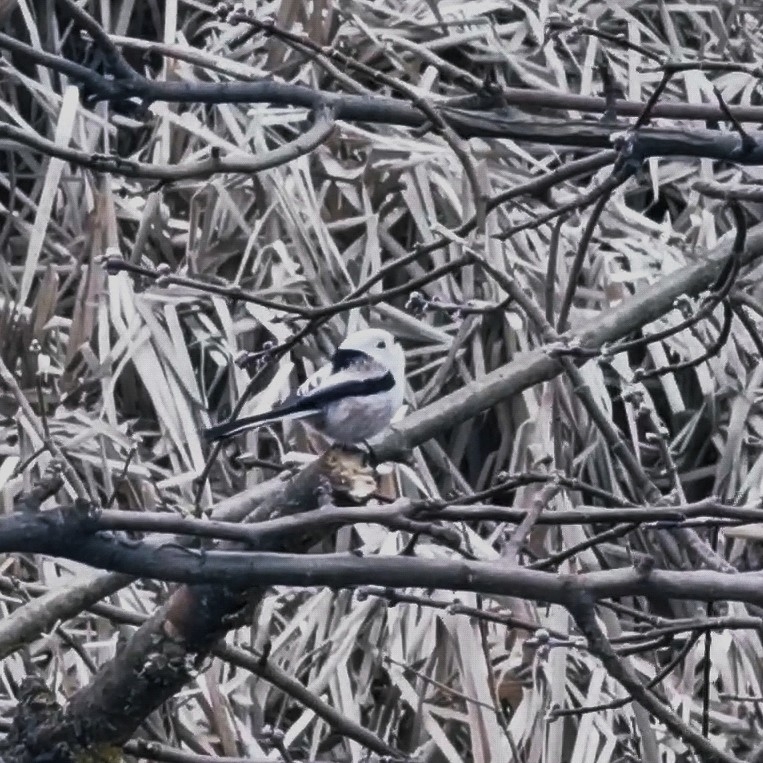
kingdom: Animalia
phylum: Chordata
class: Aves
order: Passeriformes
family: Aegithalidae
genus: Aegithalos
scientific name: Aegithalos caudatus
